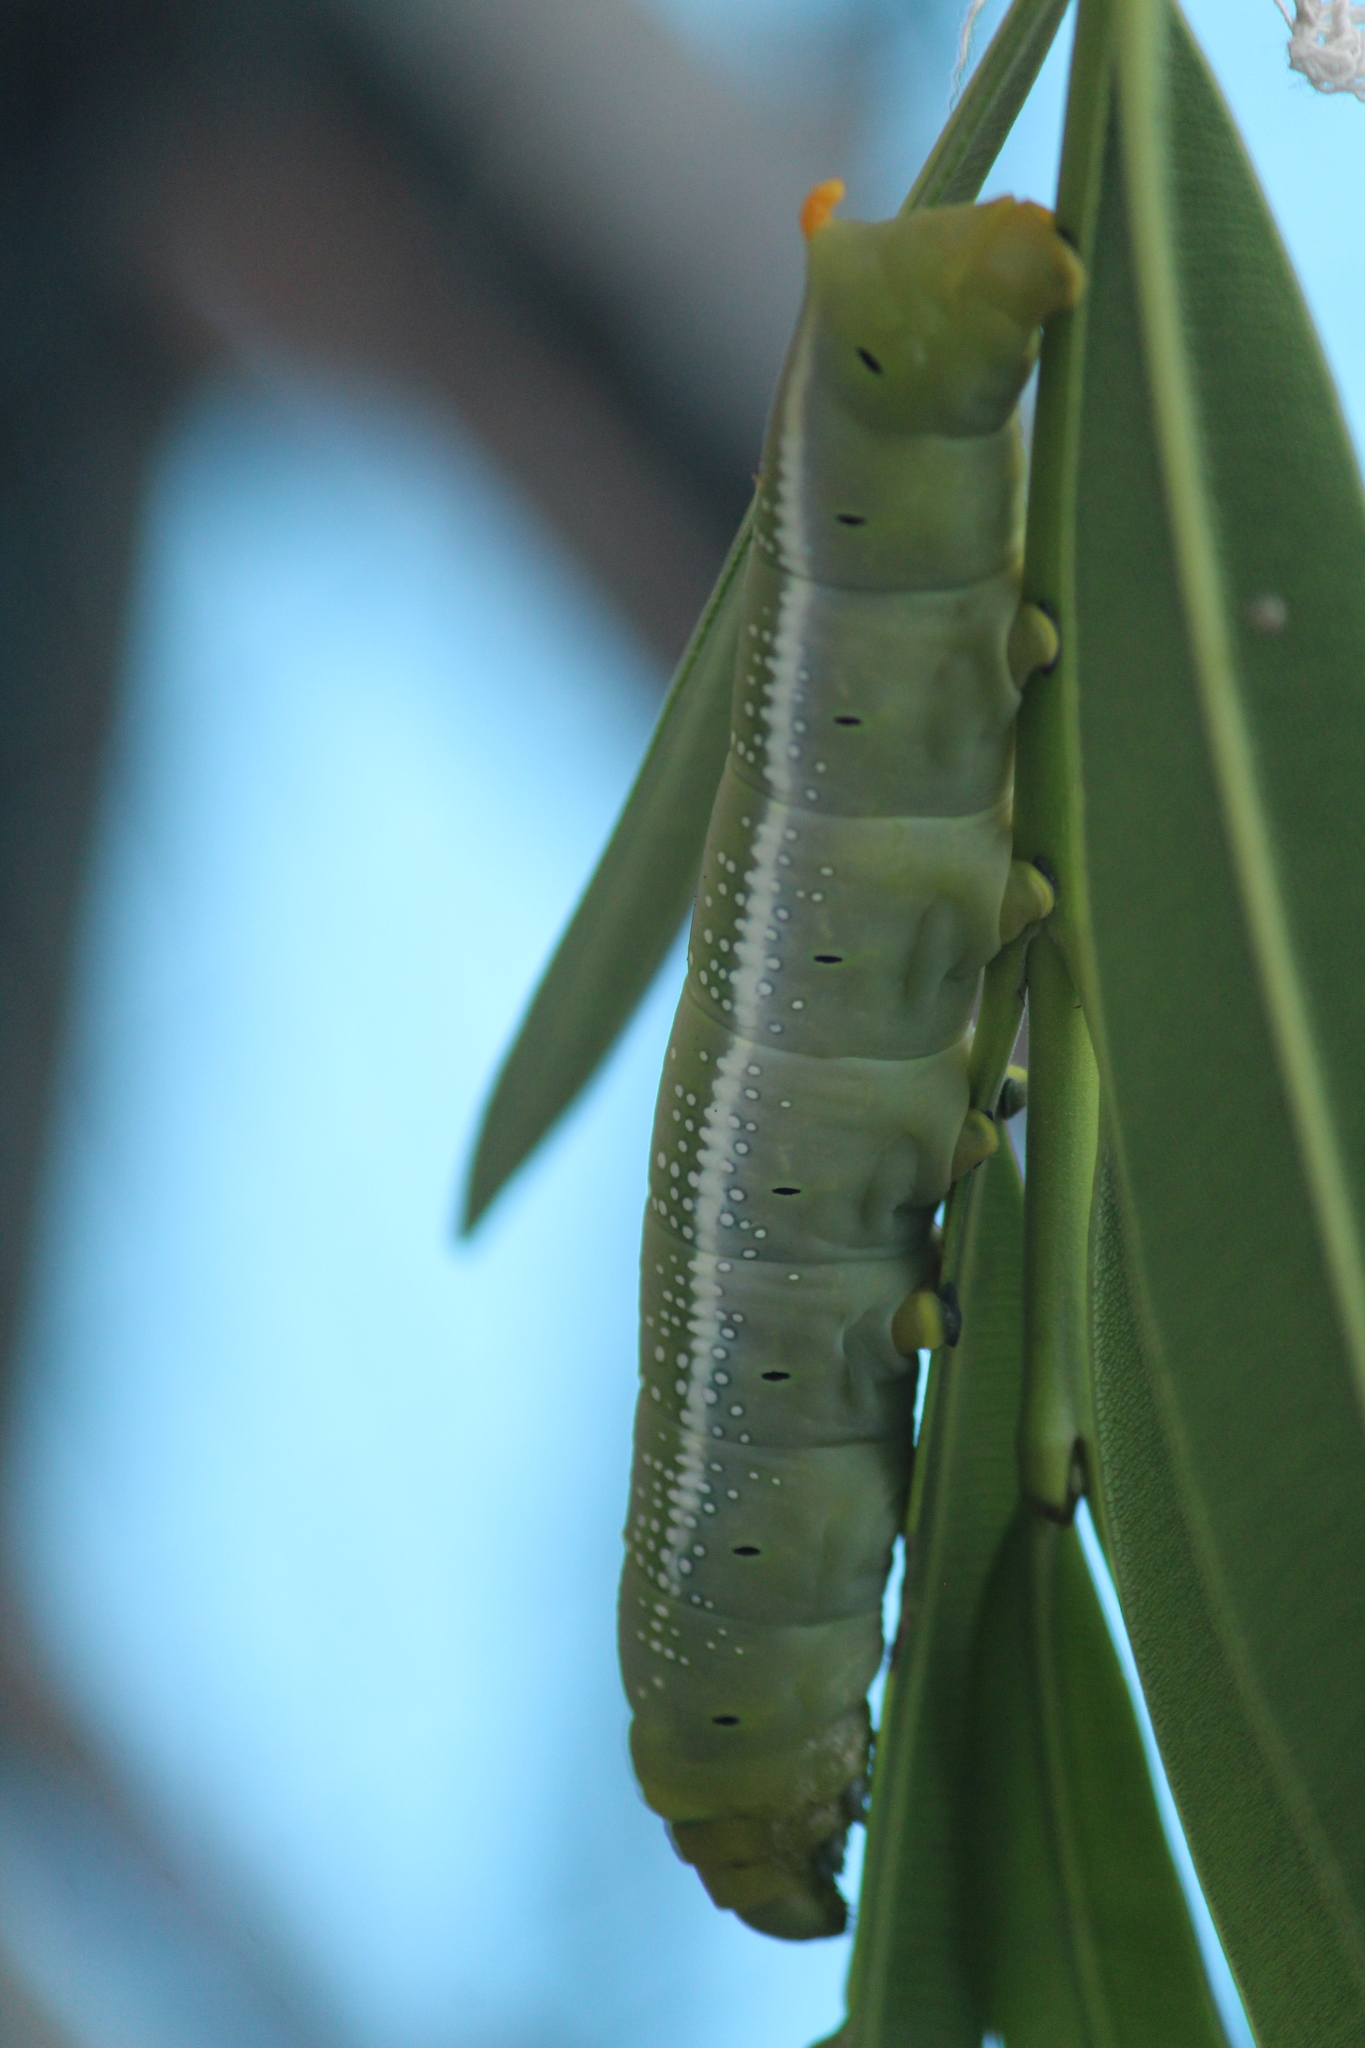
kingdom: Animalia
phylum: Arthropoda
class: Insecta
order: Lepidoptera
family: Sphingidae
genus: Daphnis
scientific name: Daphnis nerii
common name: Oleander hawk-moth
